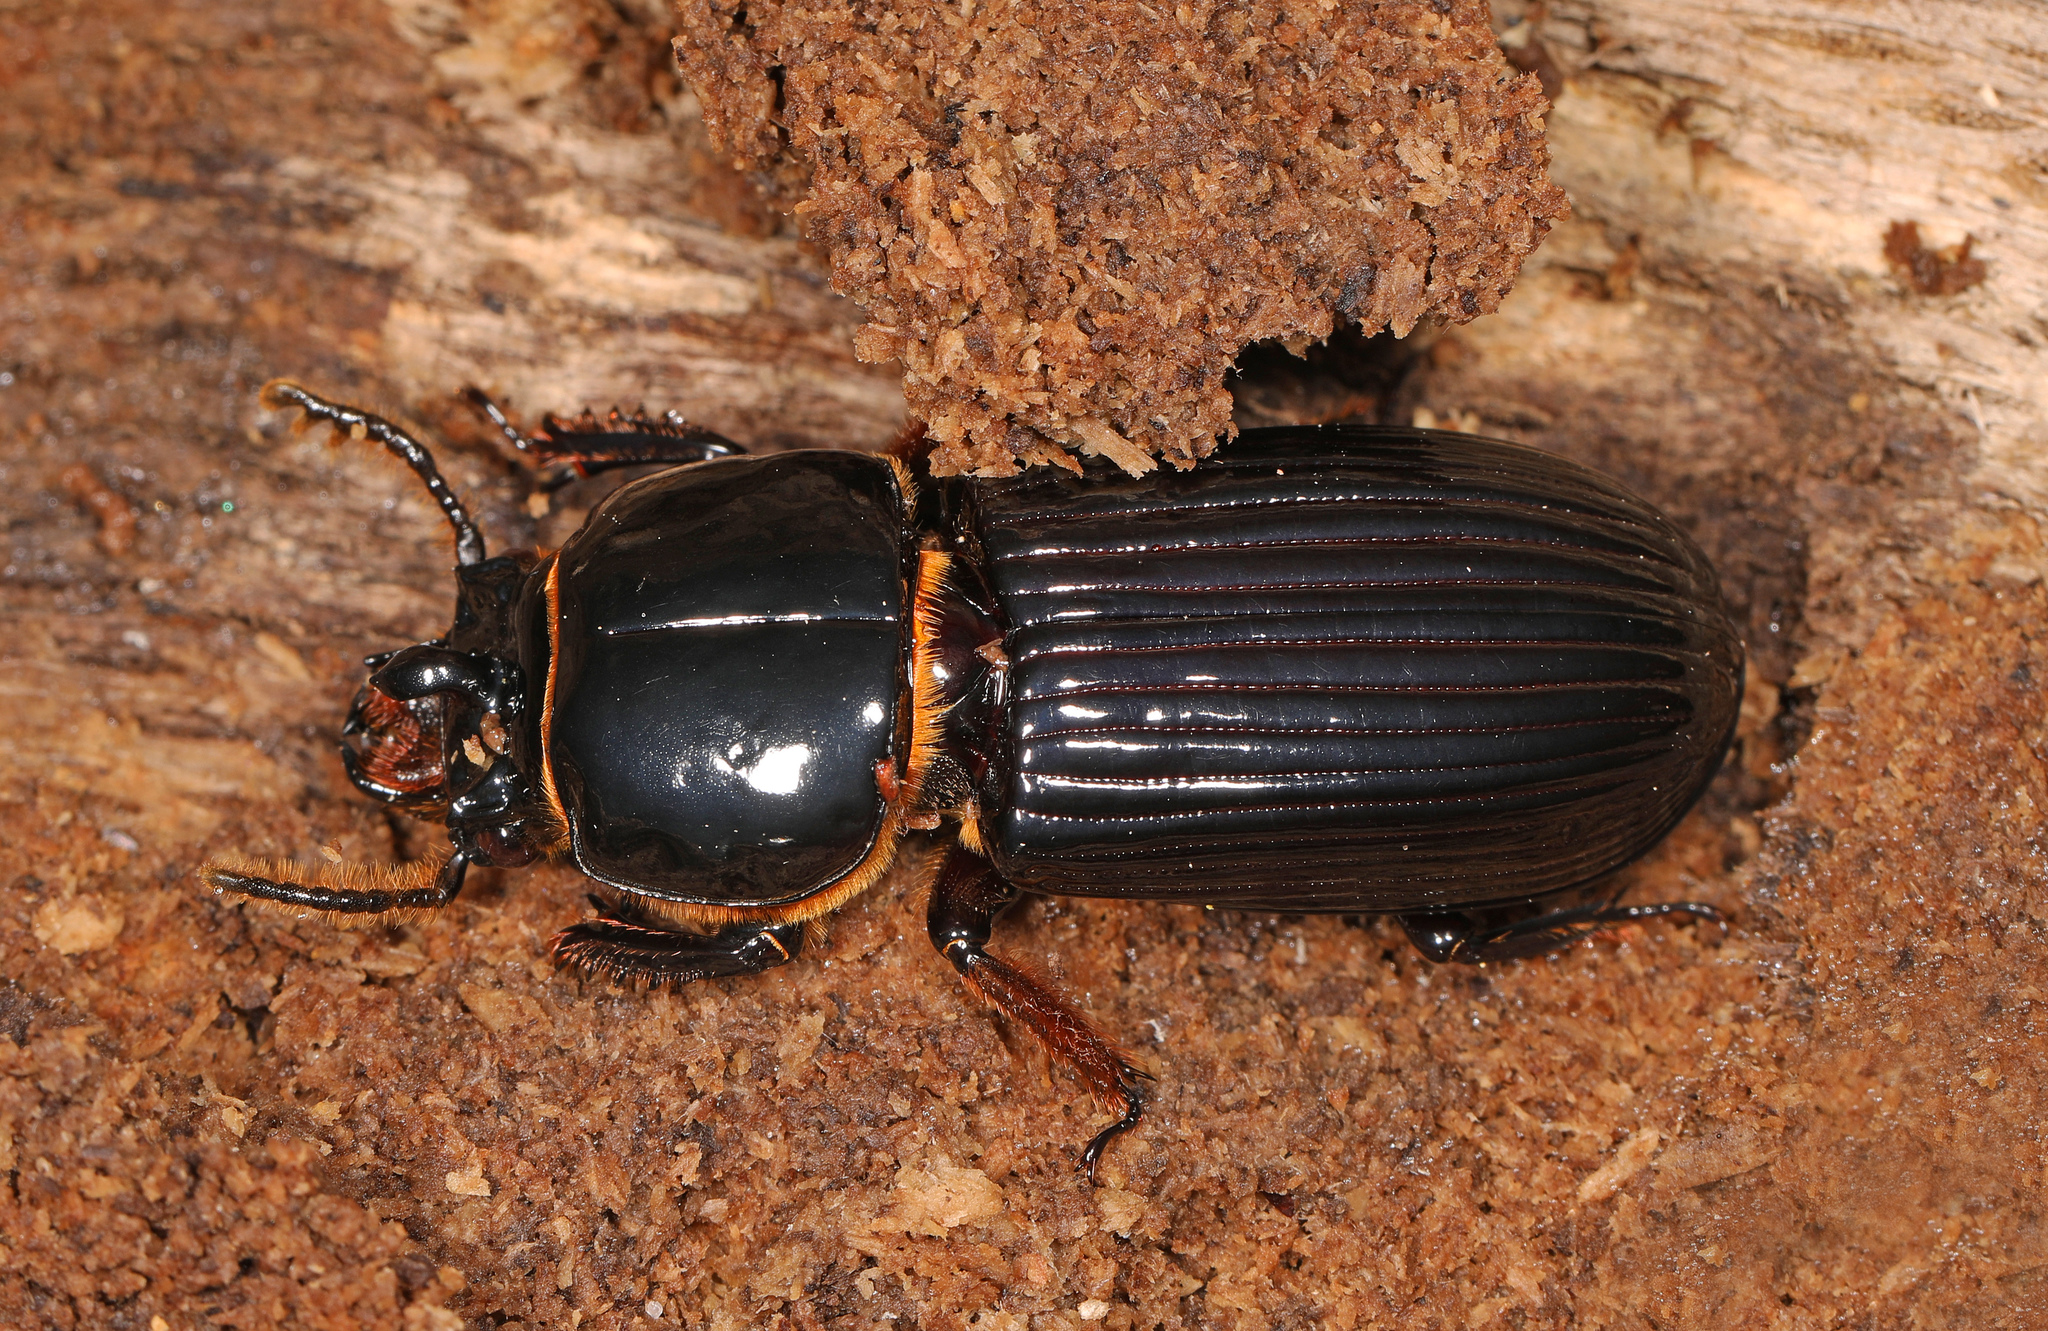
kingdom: Animalia
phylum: Arthropoda
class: Insecta
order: Coleoptera
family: Passalidae
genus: Odontotaenius
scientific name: Odontotaenius disjunctus
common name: Patent leather beetle
